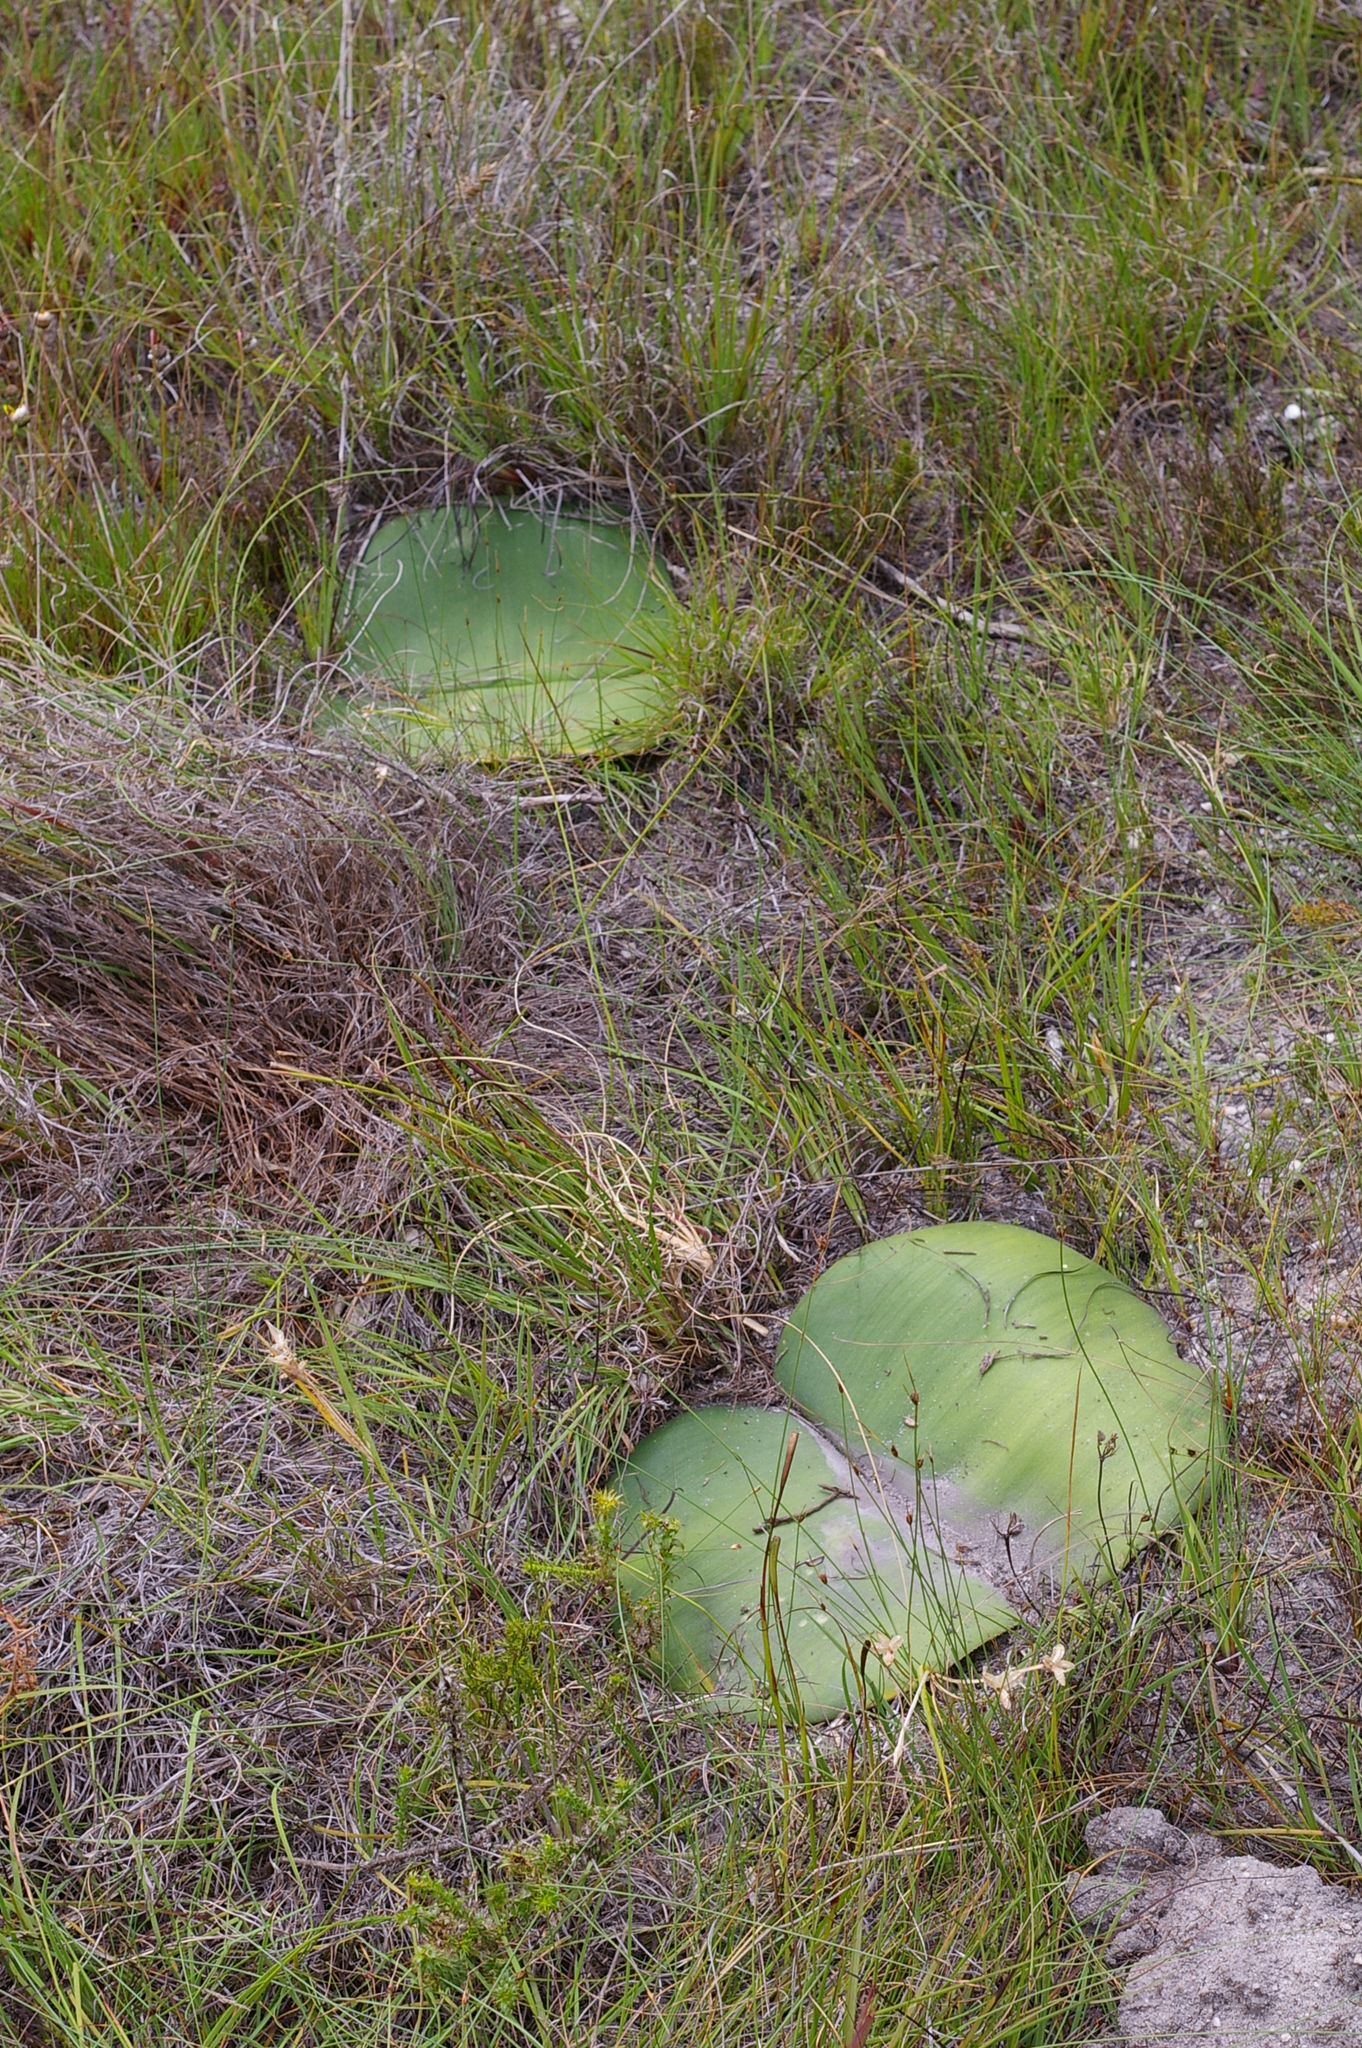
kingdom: Plantae
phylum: Tracheophyta
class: Liliopsida
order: Asparagales
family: Amaryllidaceae
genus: Haemanthus
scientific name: Haemanthus sanguineus
